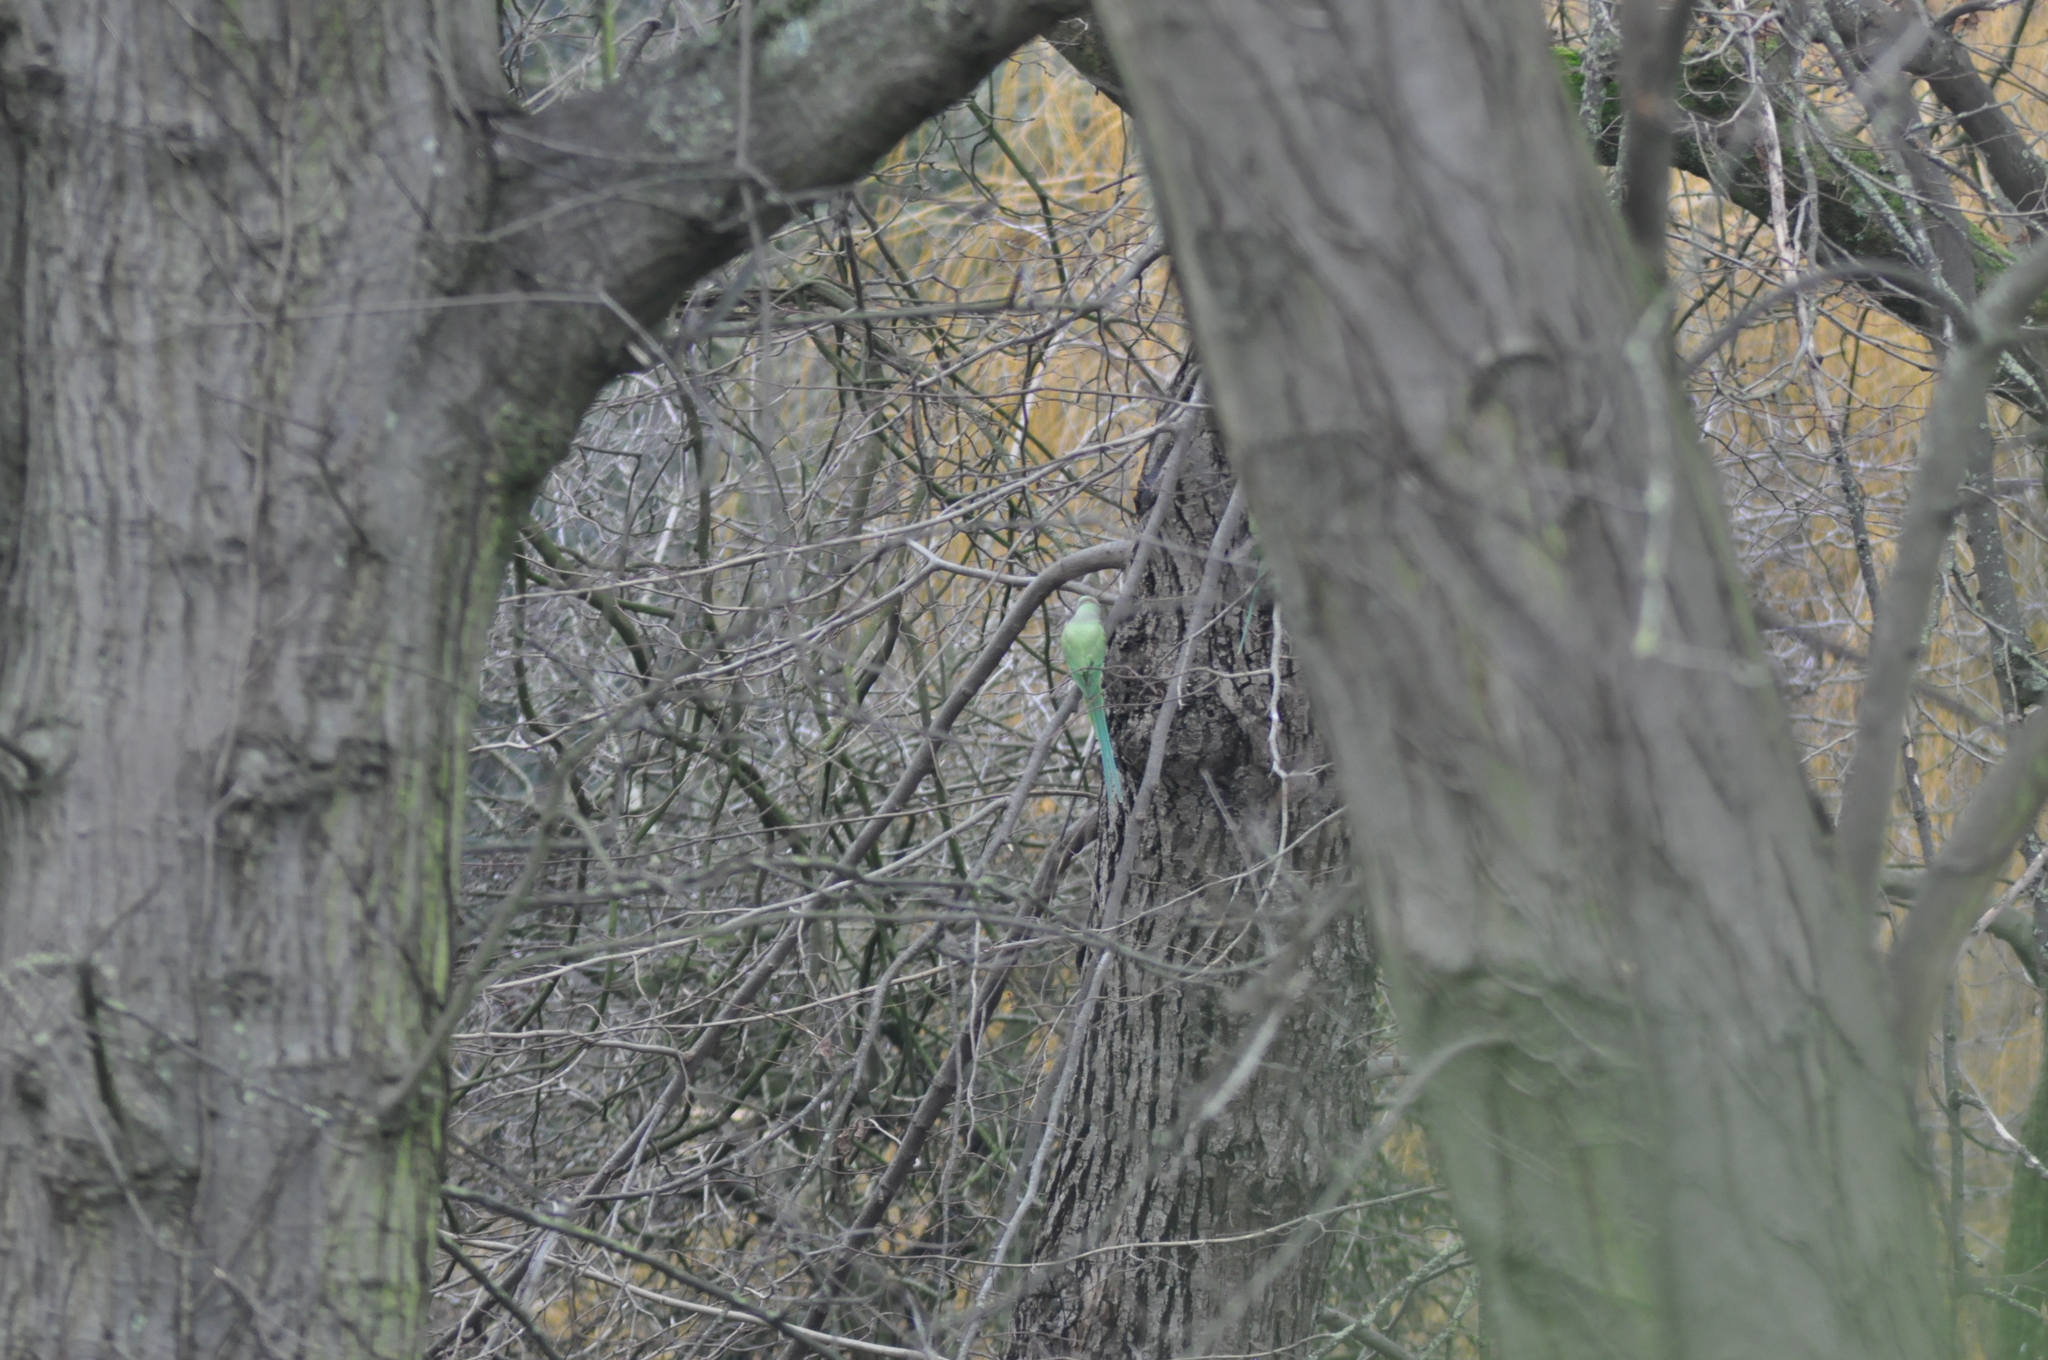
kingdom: Animalia
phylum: Chordata
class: Aves
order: Psittaciformes
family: Psittacidae
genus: Psittacula
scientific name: Psittacula krameri
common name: Rose-ringed parakeet
